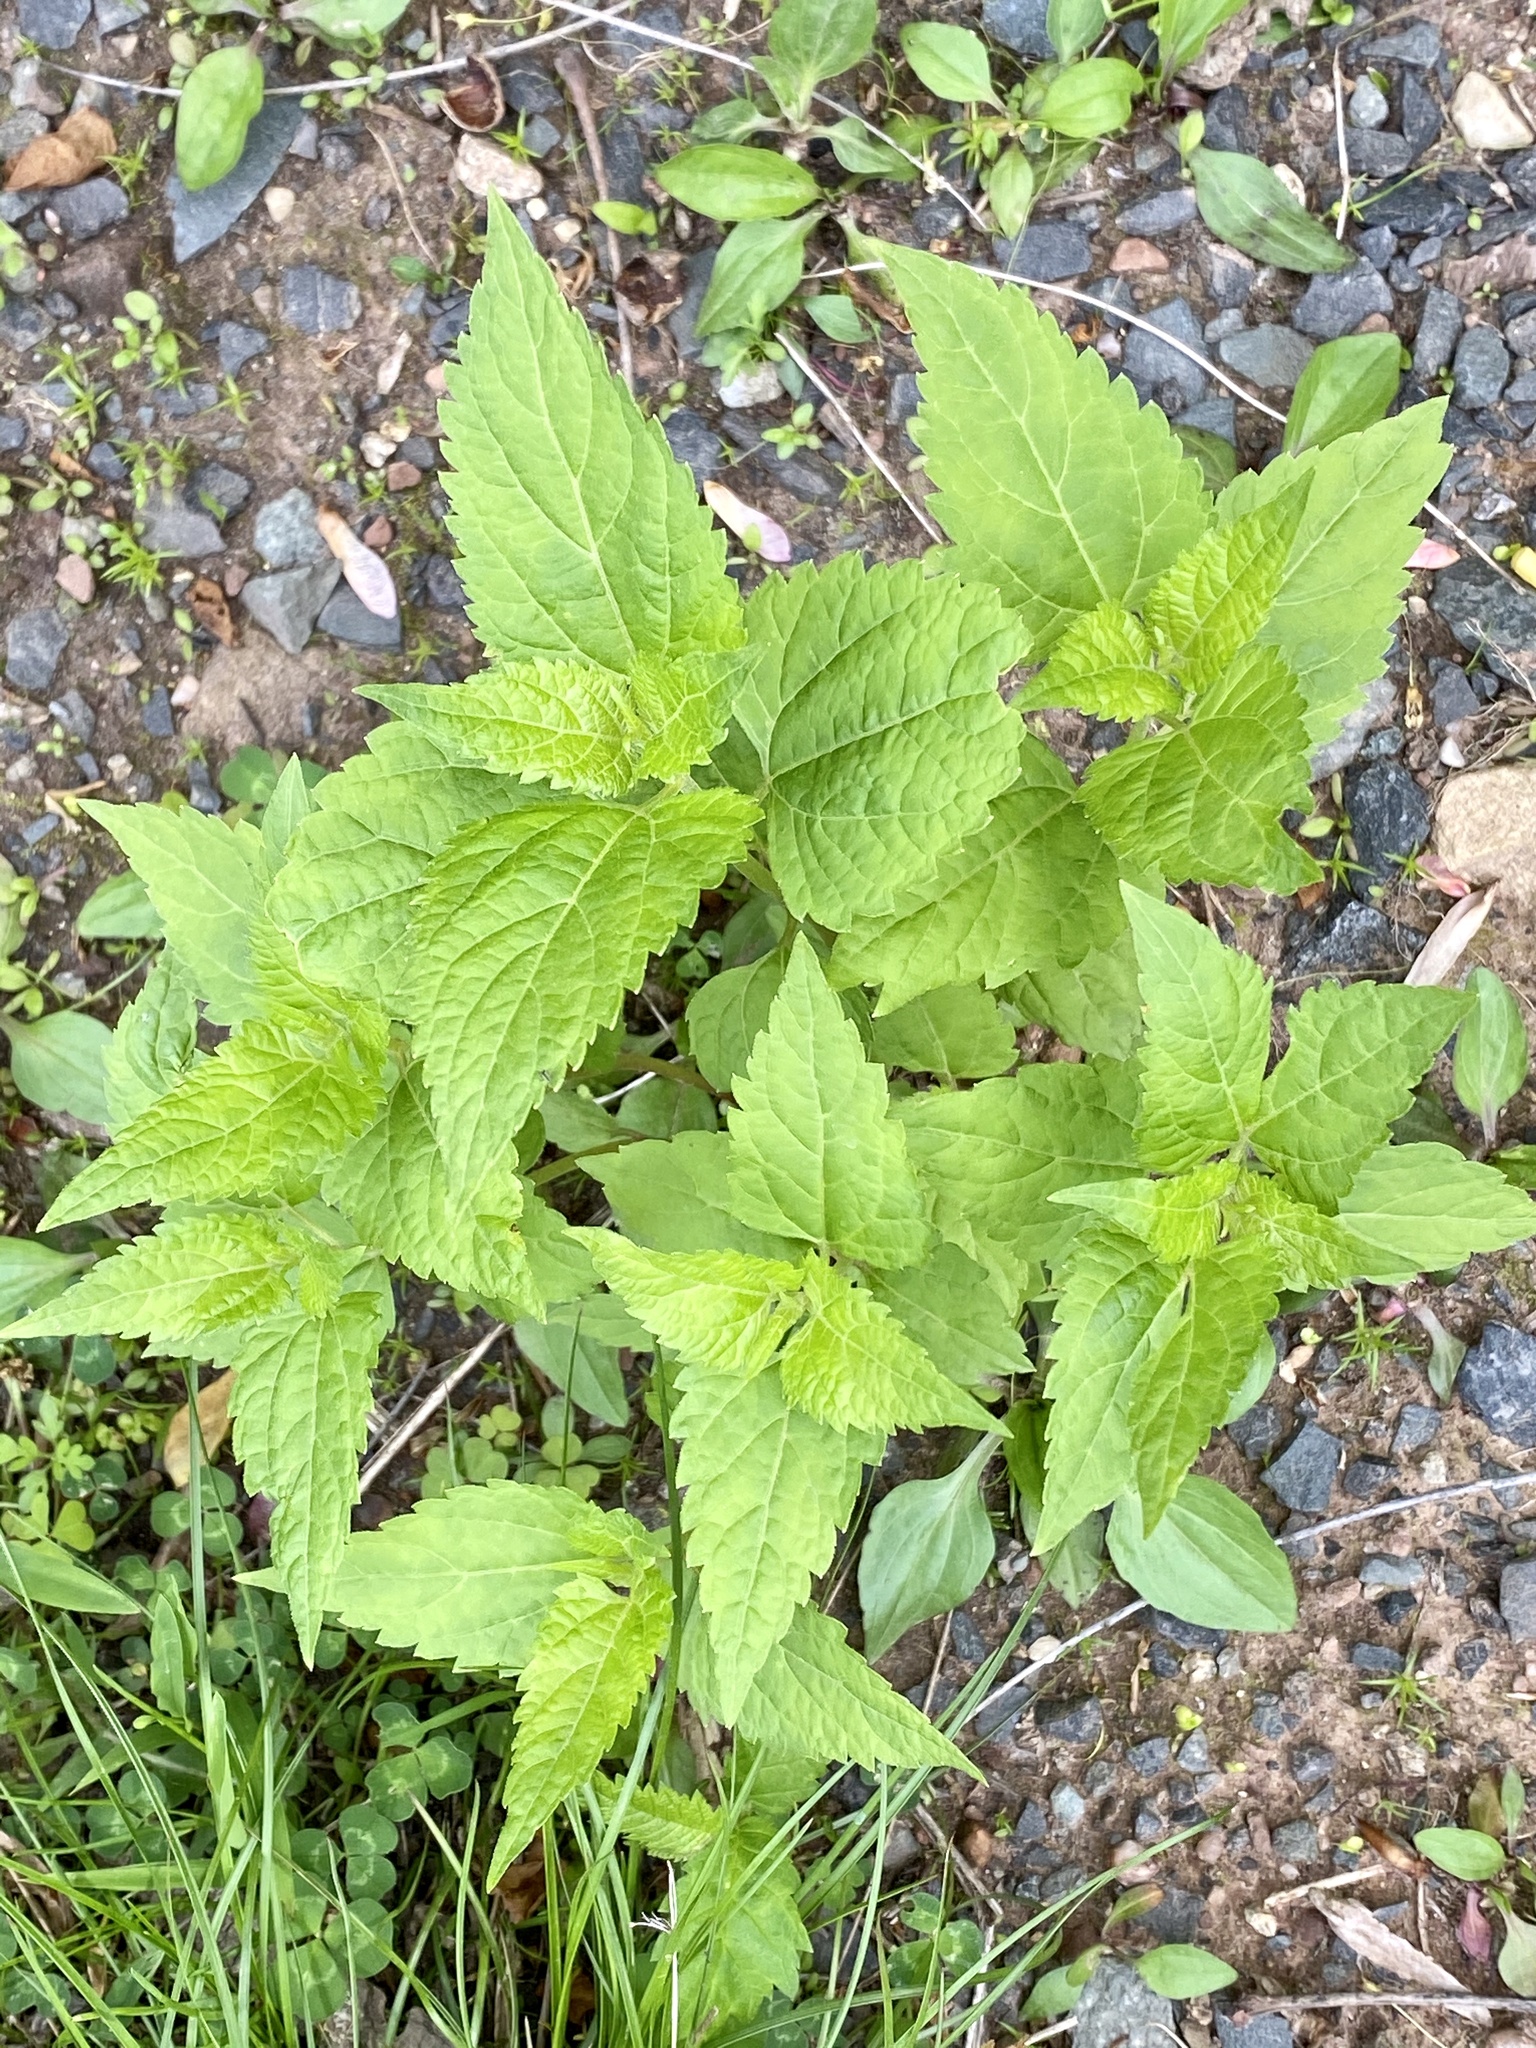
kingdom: Plantae
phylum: Tracheophyta
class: Magnoliopsida
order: Asterales
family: Asteraceae
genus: Ageratina
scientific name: Ageratina altissima
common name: White snakeroot
